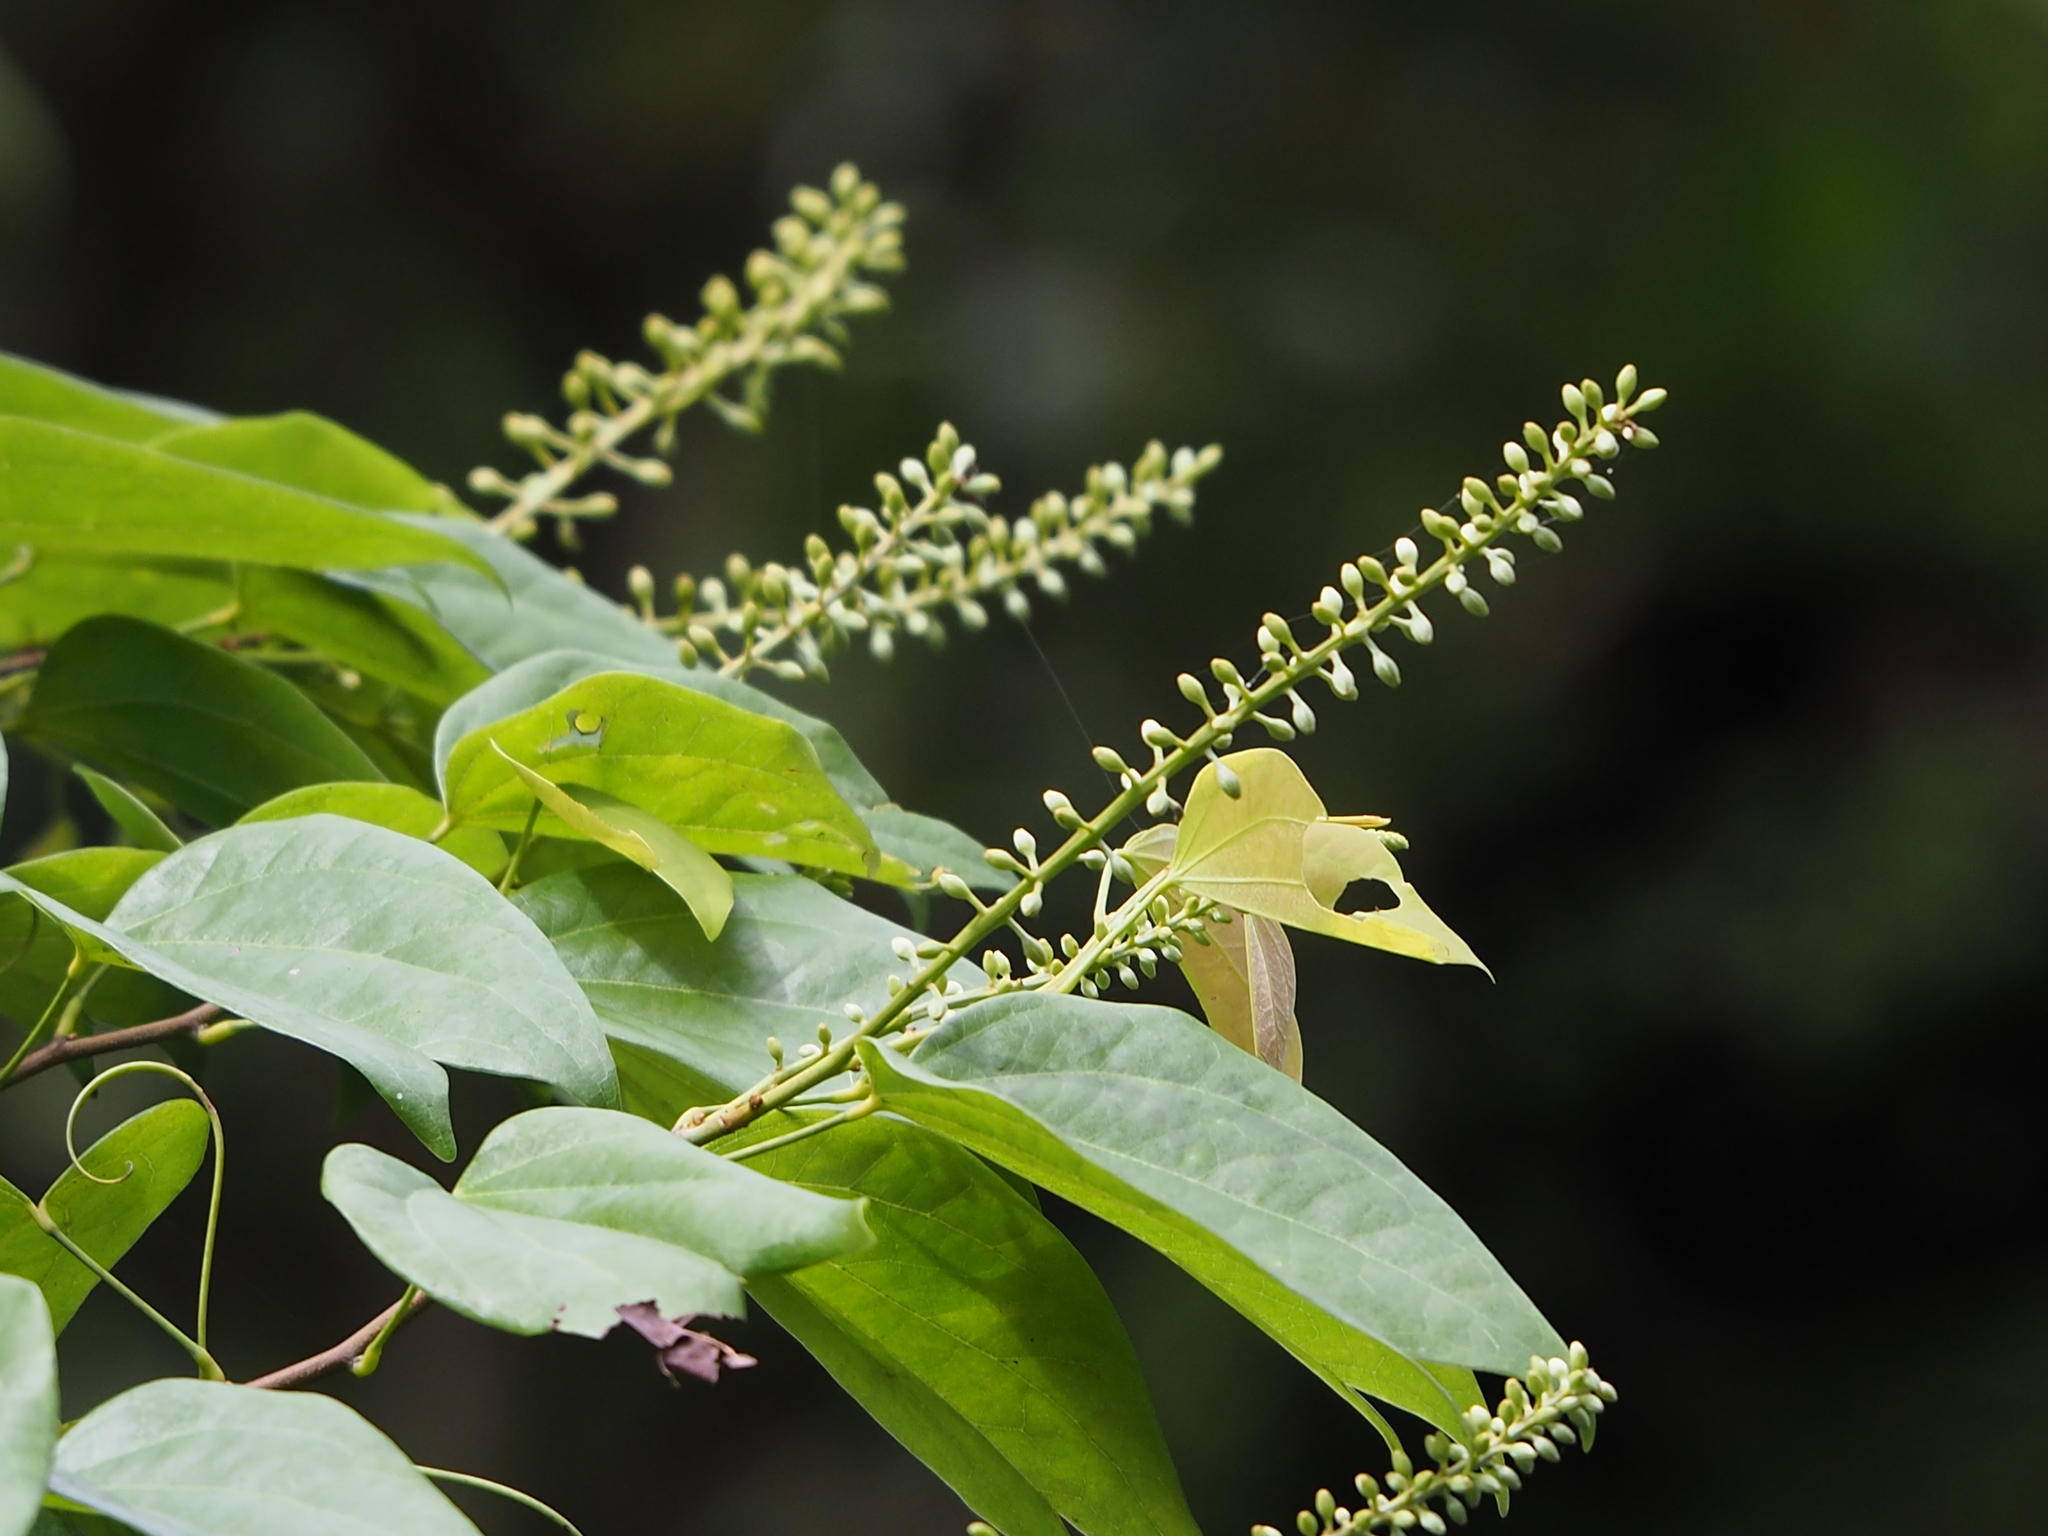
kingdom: Plantae
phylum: Tracheophyta
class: Magnoliopsida
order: Fabales
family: Fabaceae
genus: Phanera
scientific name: Phanera championii
